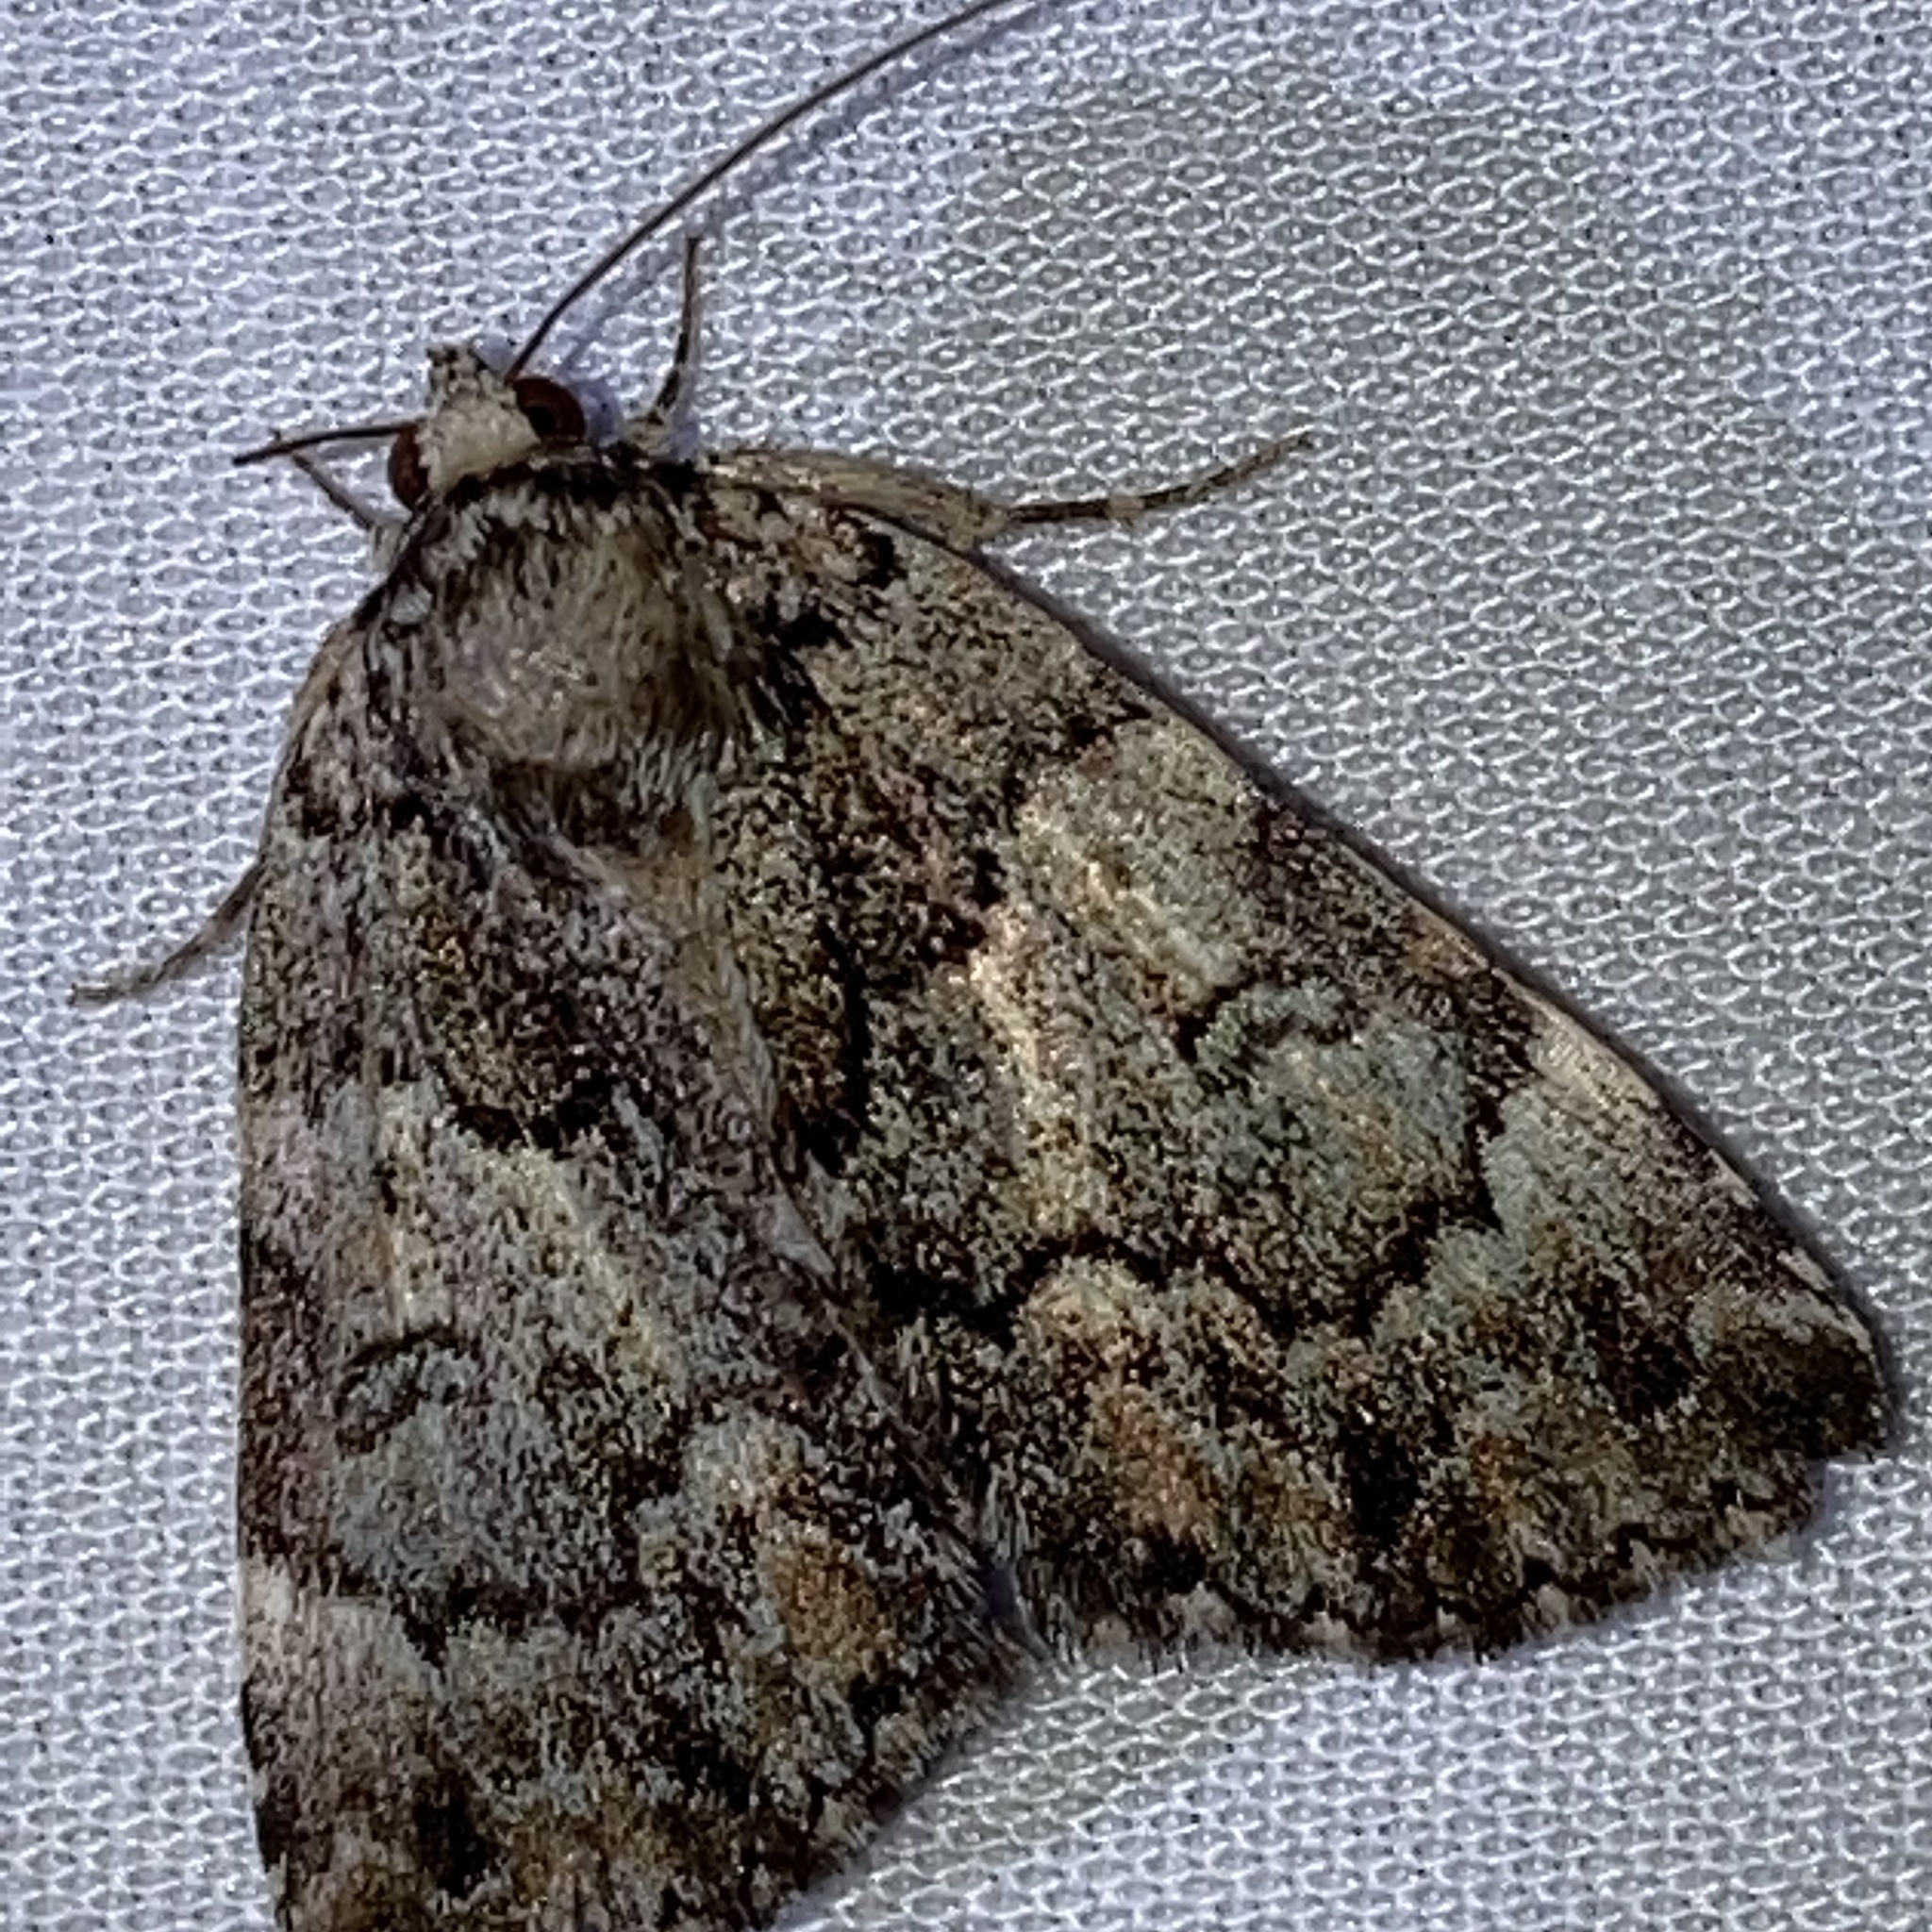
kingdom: Animalia
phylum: Arthropoda
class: Insecta
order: Lepidoptera
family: Erebidae
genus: Allotria
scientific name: Allotria elonympha
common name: False underwing
